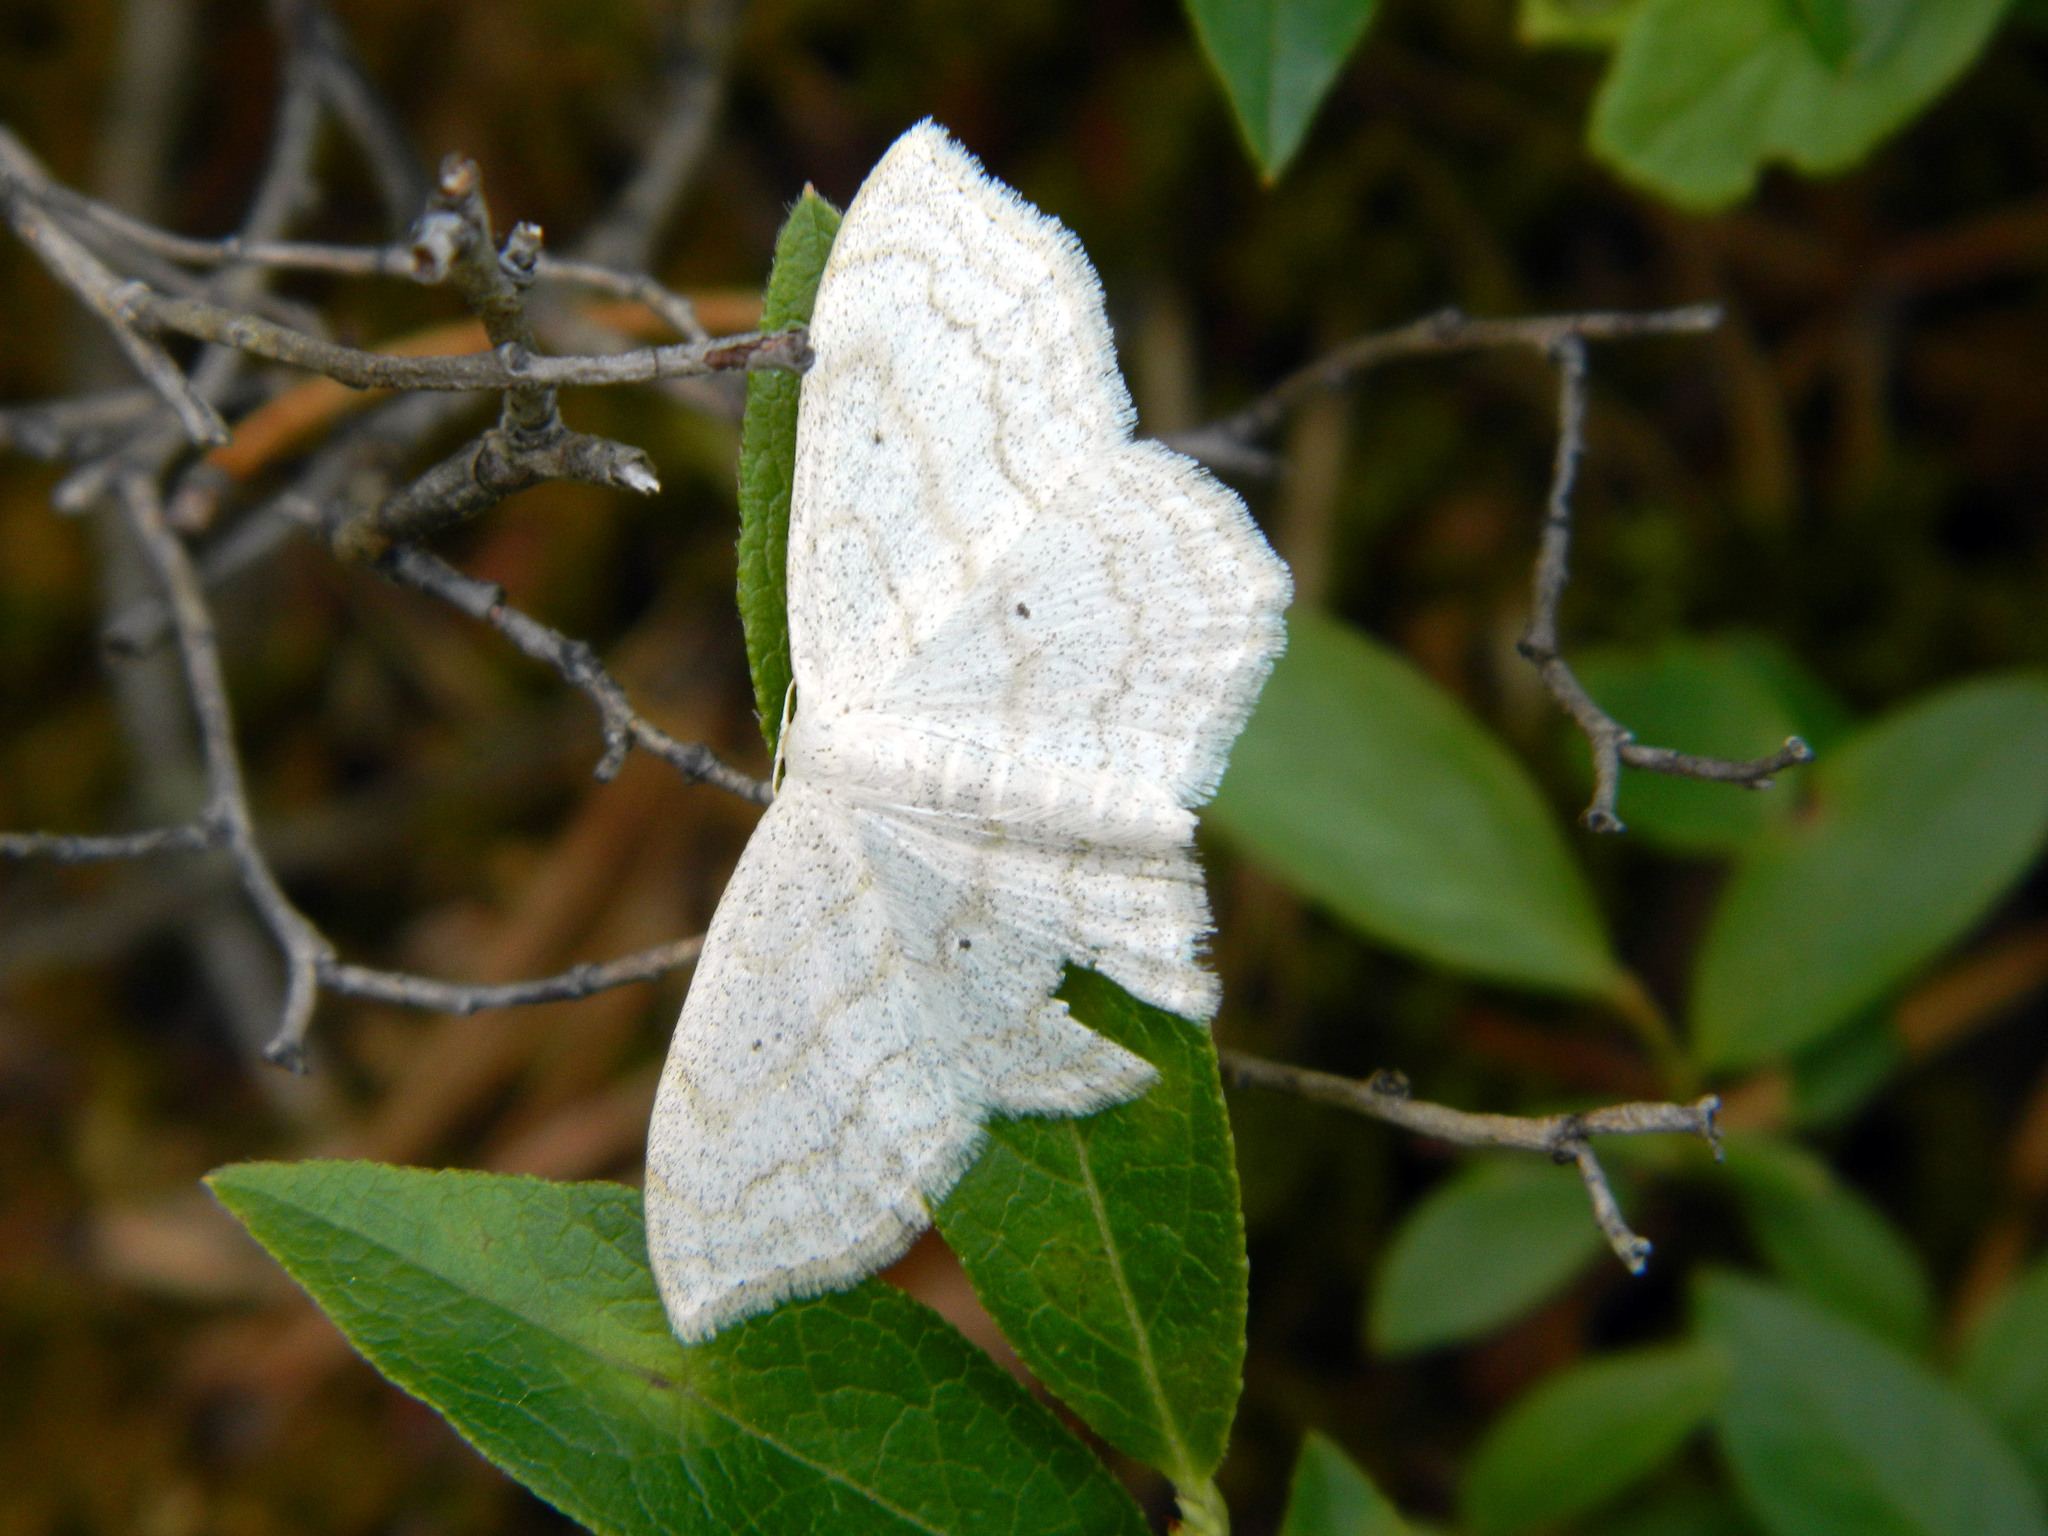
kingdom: Animalia
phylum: Arthropoda
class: Insecta
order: Lepidoptera
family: Geometridae
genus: Scopula
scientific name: Scopula limboundata
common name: Large lace border
